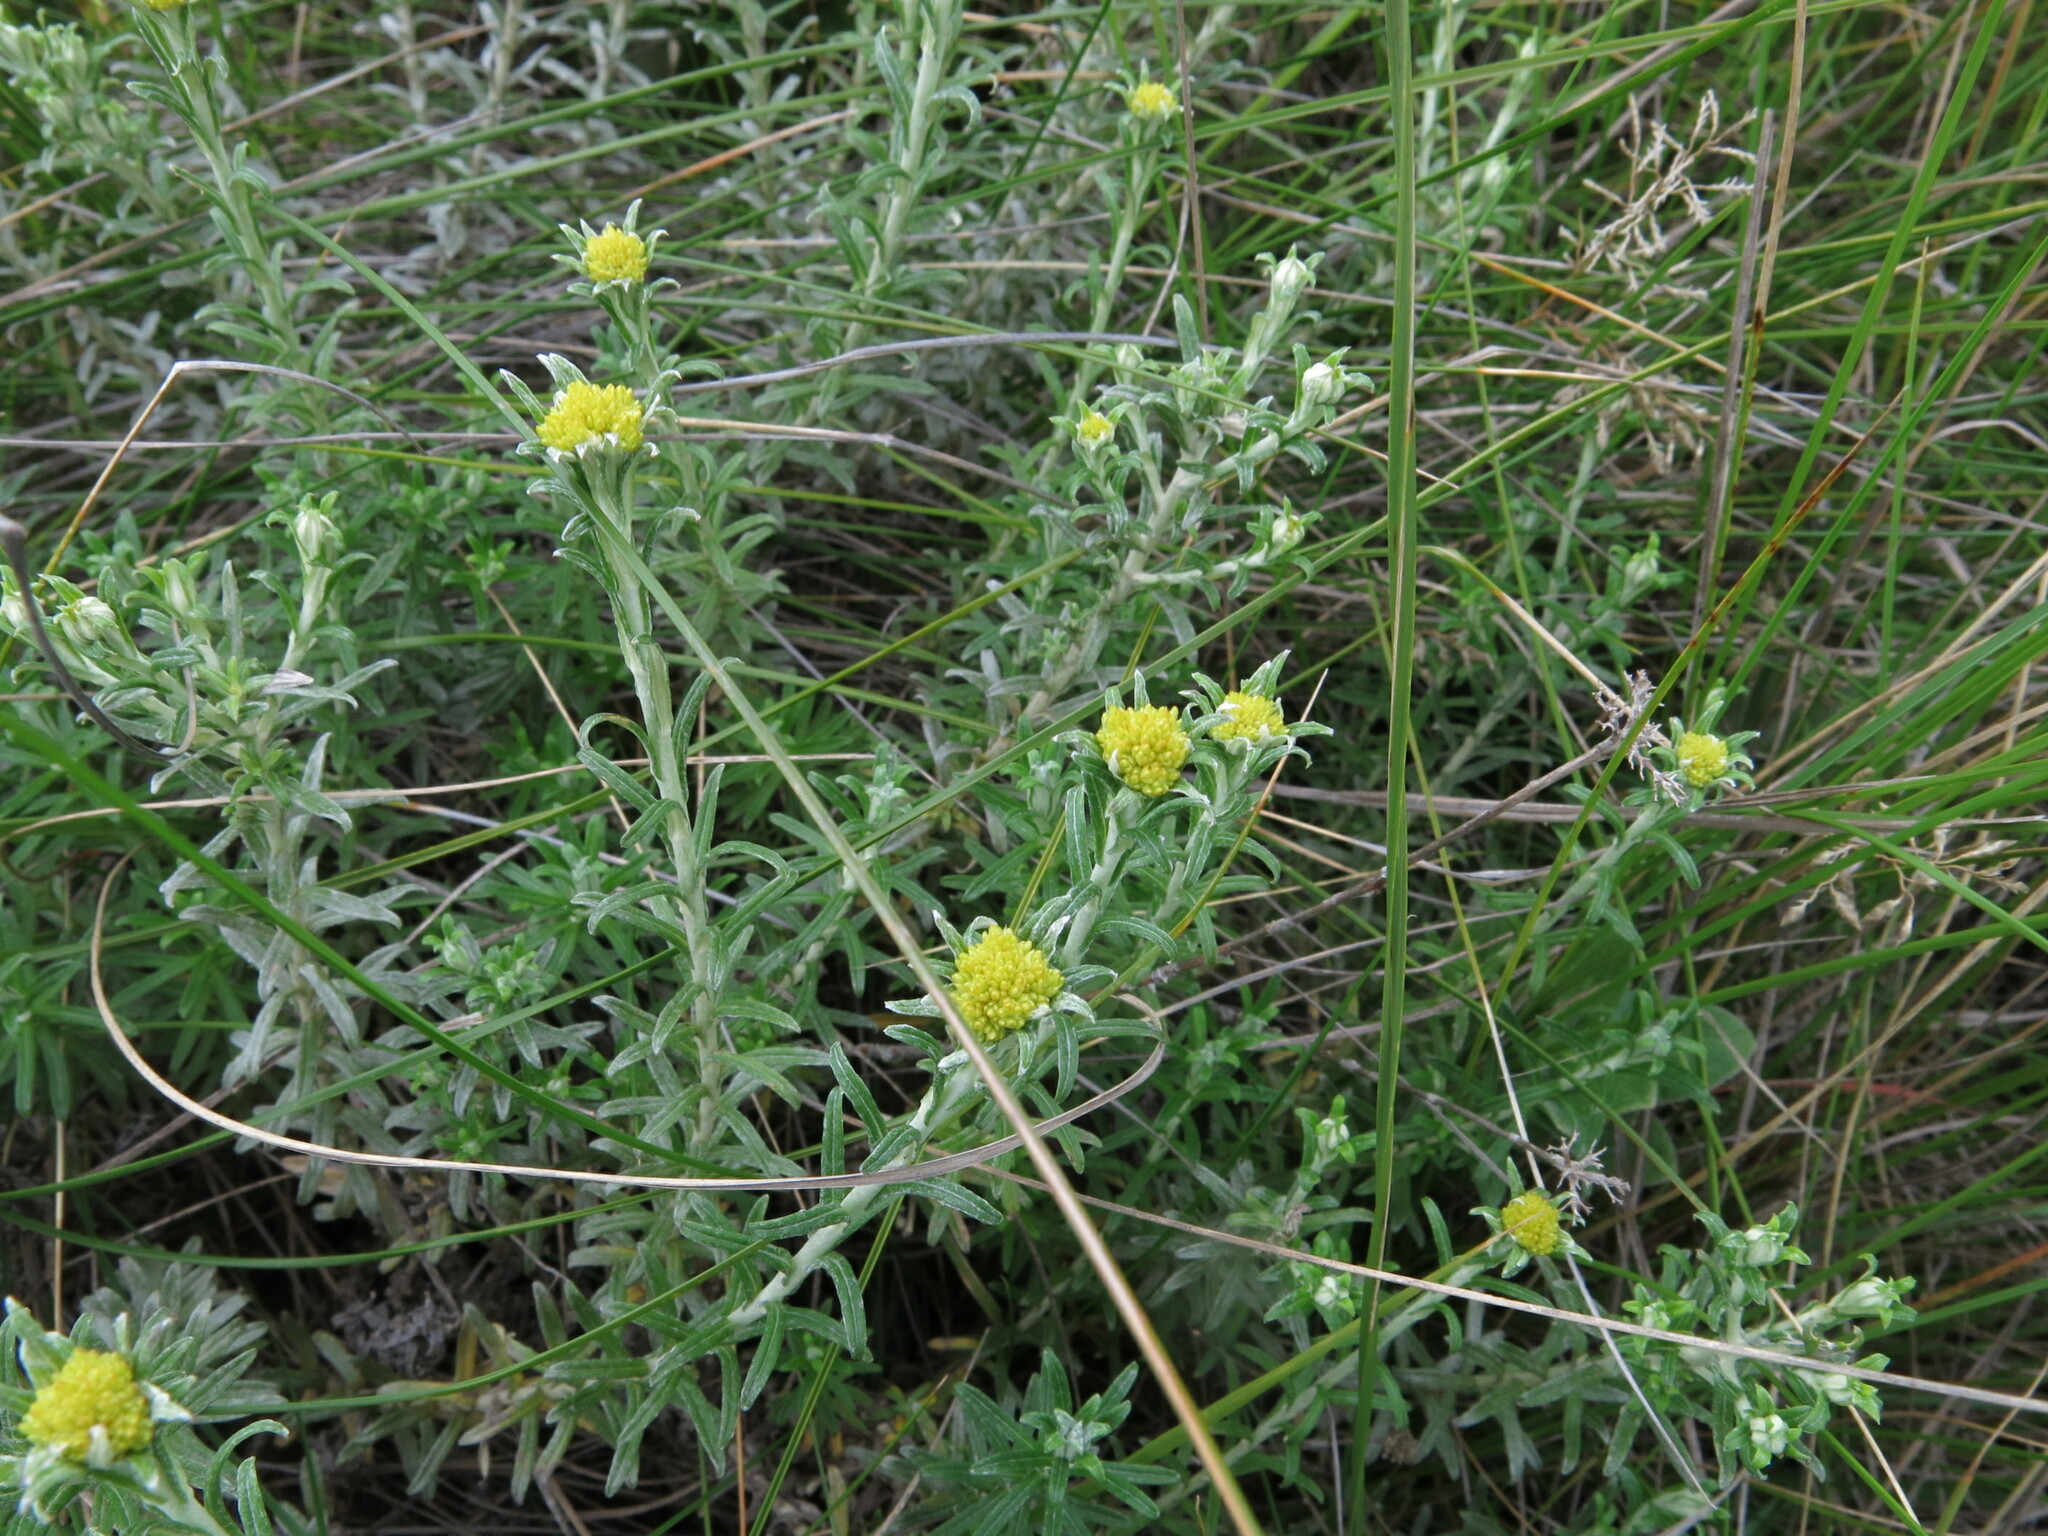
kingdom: Plantae
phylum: Tracheophyta
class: Magnoliopsida
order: Asterales
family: Asteraceae
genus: Helichrysum
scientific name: Helichrysum splendidum
